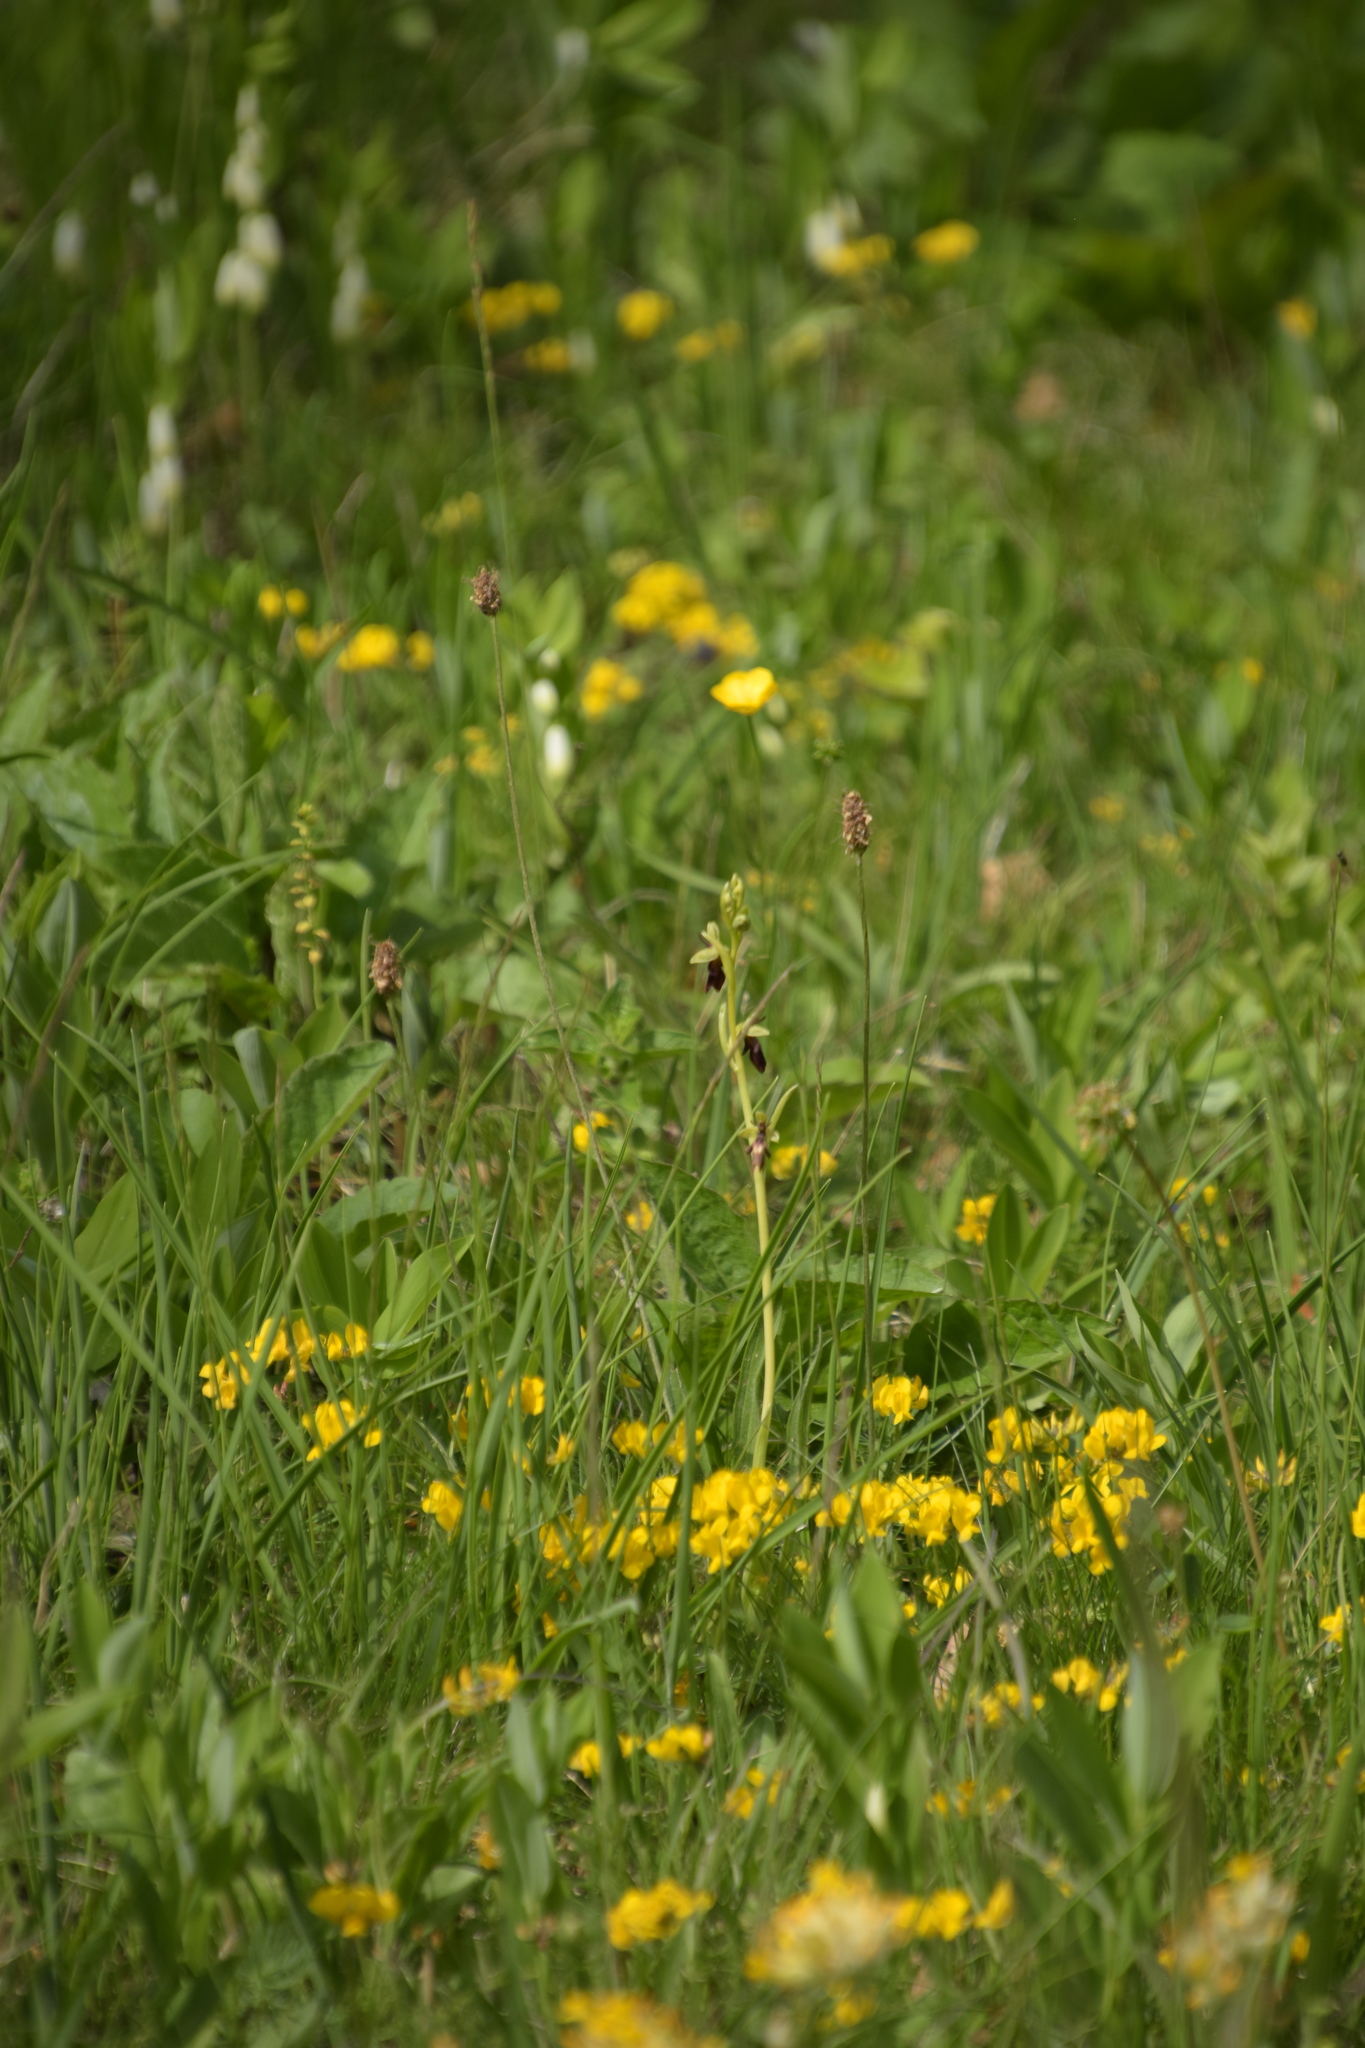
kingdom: Plantae
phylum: Tracheophyta
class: Liliopsida
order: Asparagales
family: Orchidaceae
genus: Ophrys
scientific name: Ophrys insectifera
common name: Fly orchid
